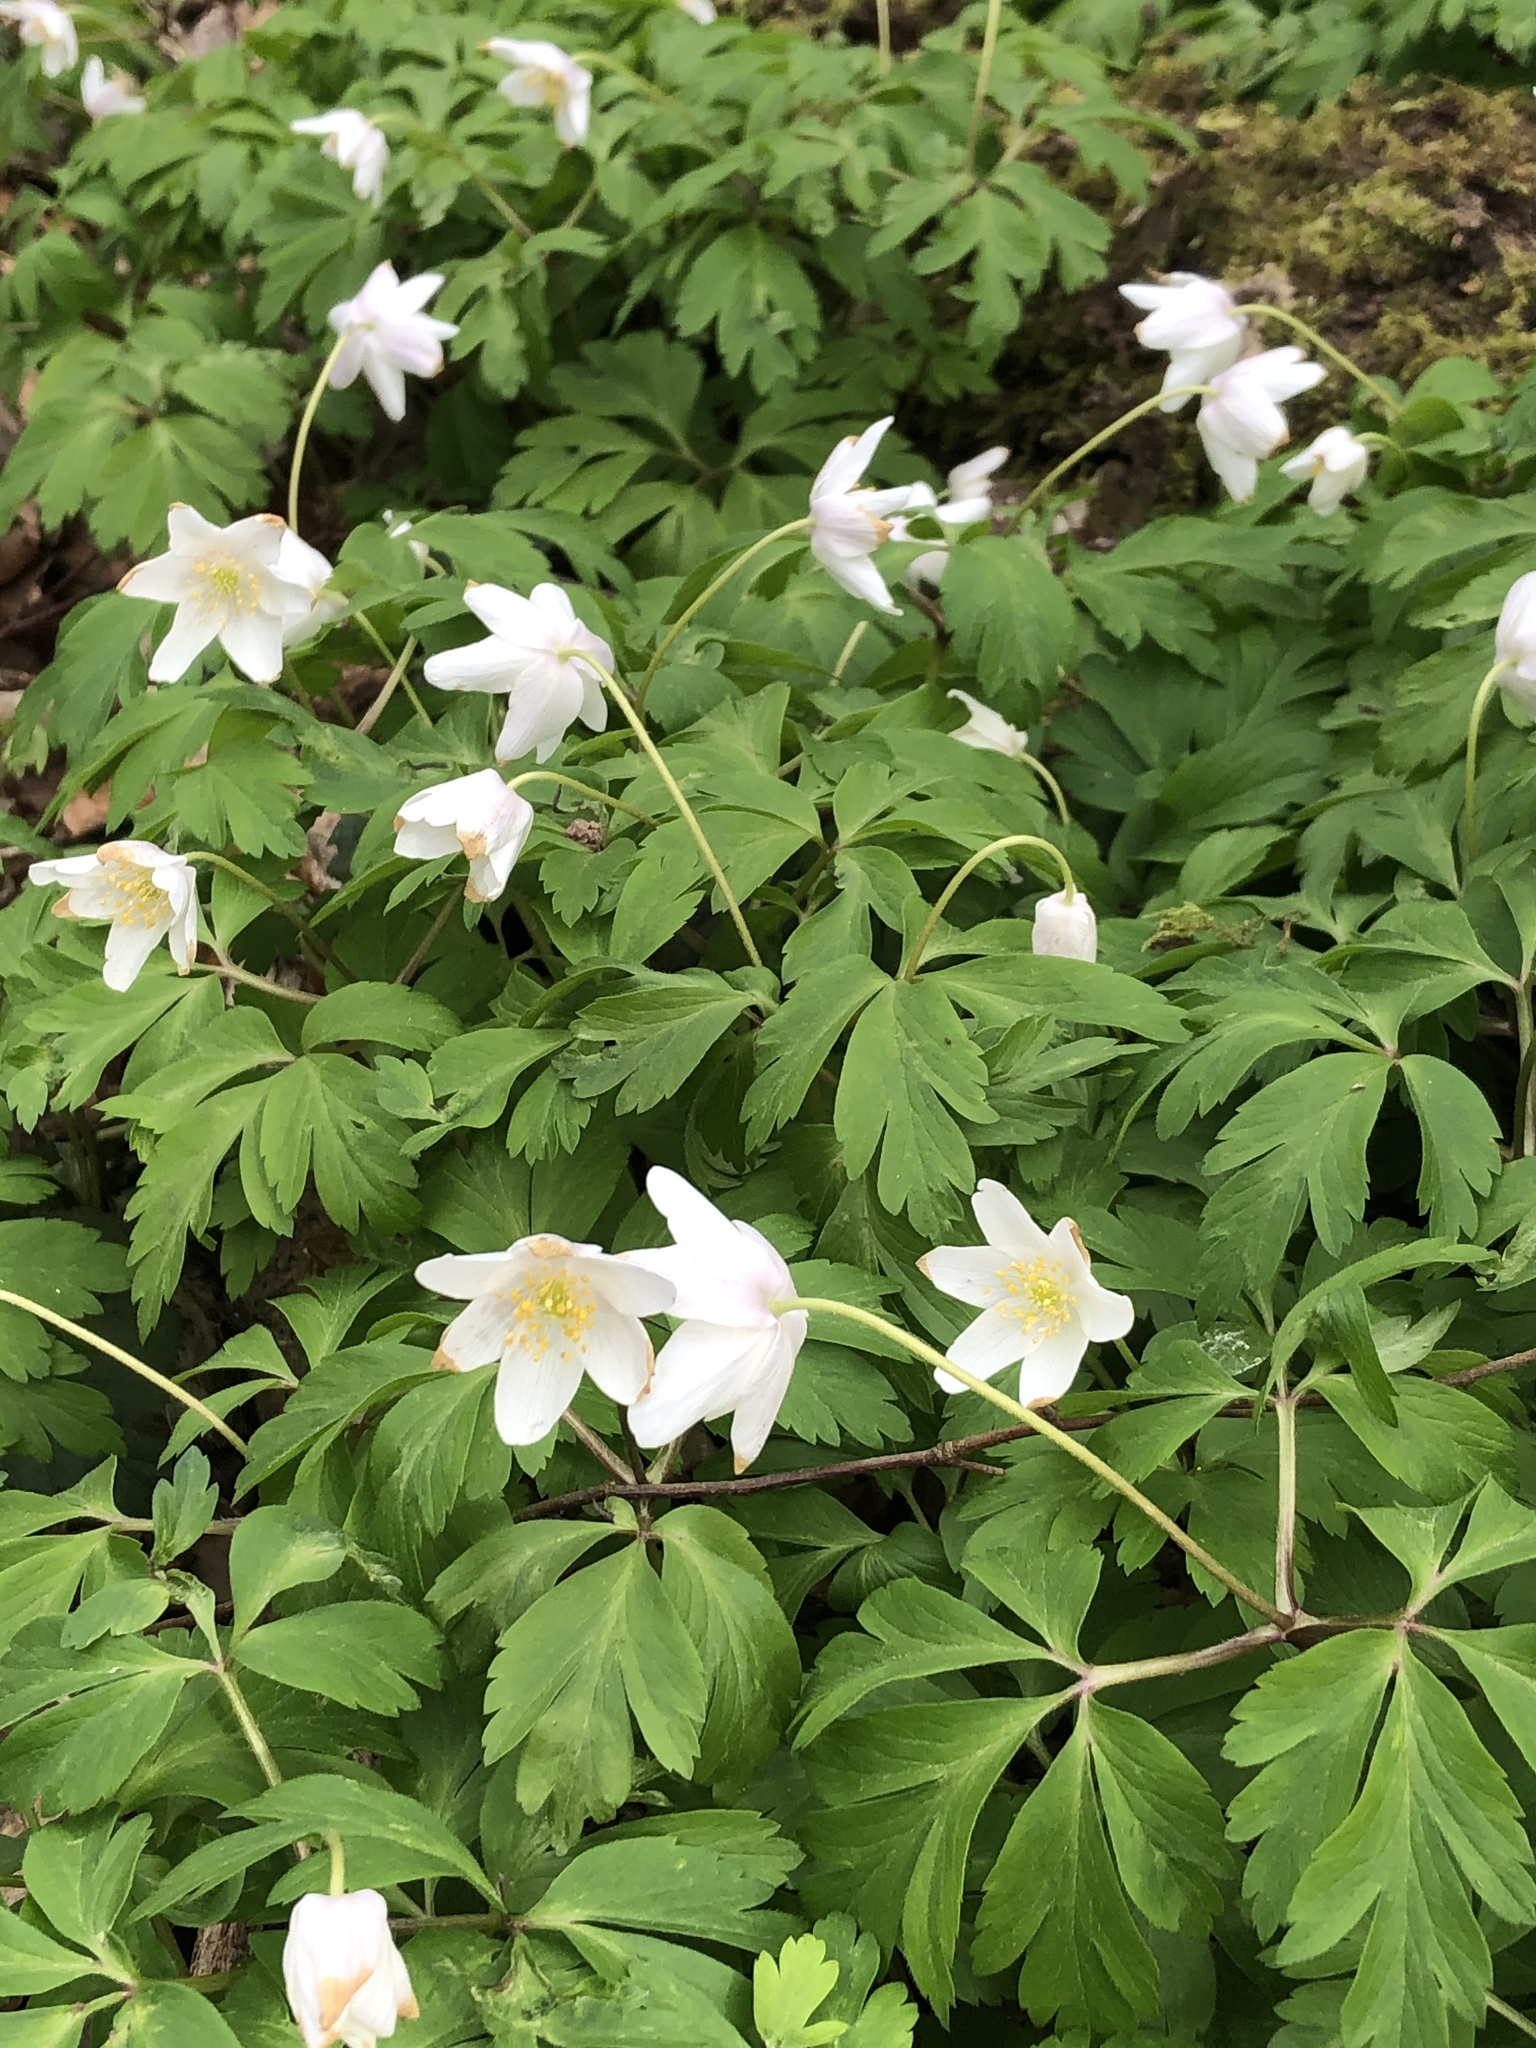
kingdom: Plantae
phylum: Tracheophyta
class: Magnoliopsida
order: Ranunculales
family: Ranunculaceae
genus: Anemone
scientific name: Anemone nemorosa
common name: Wood anemone
